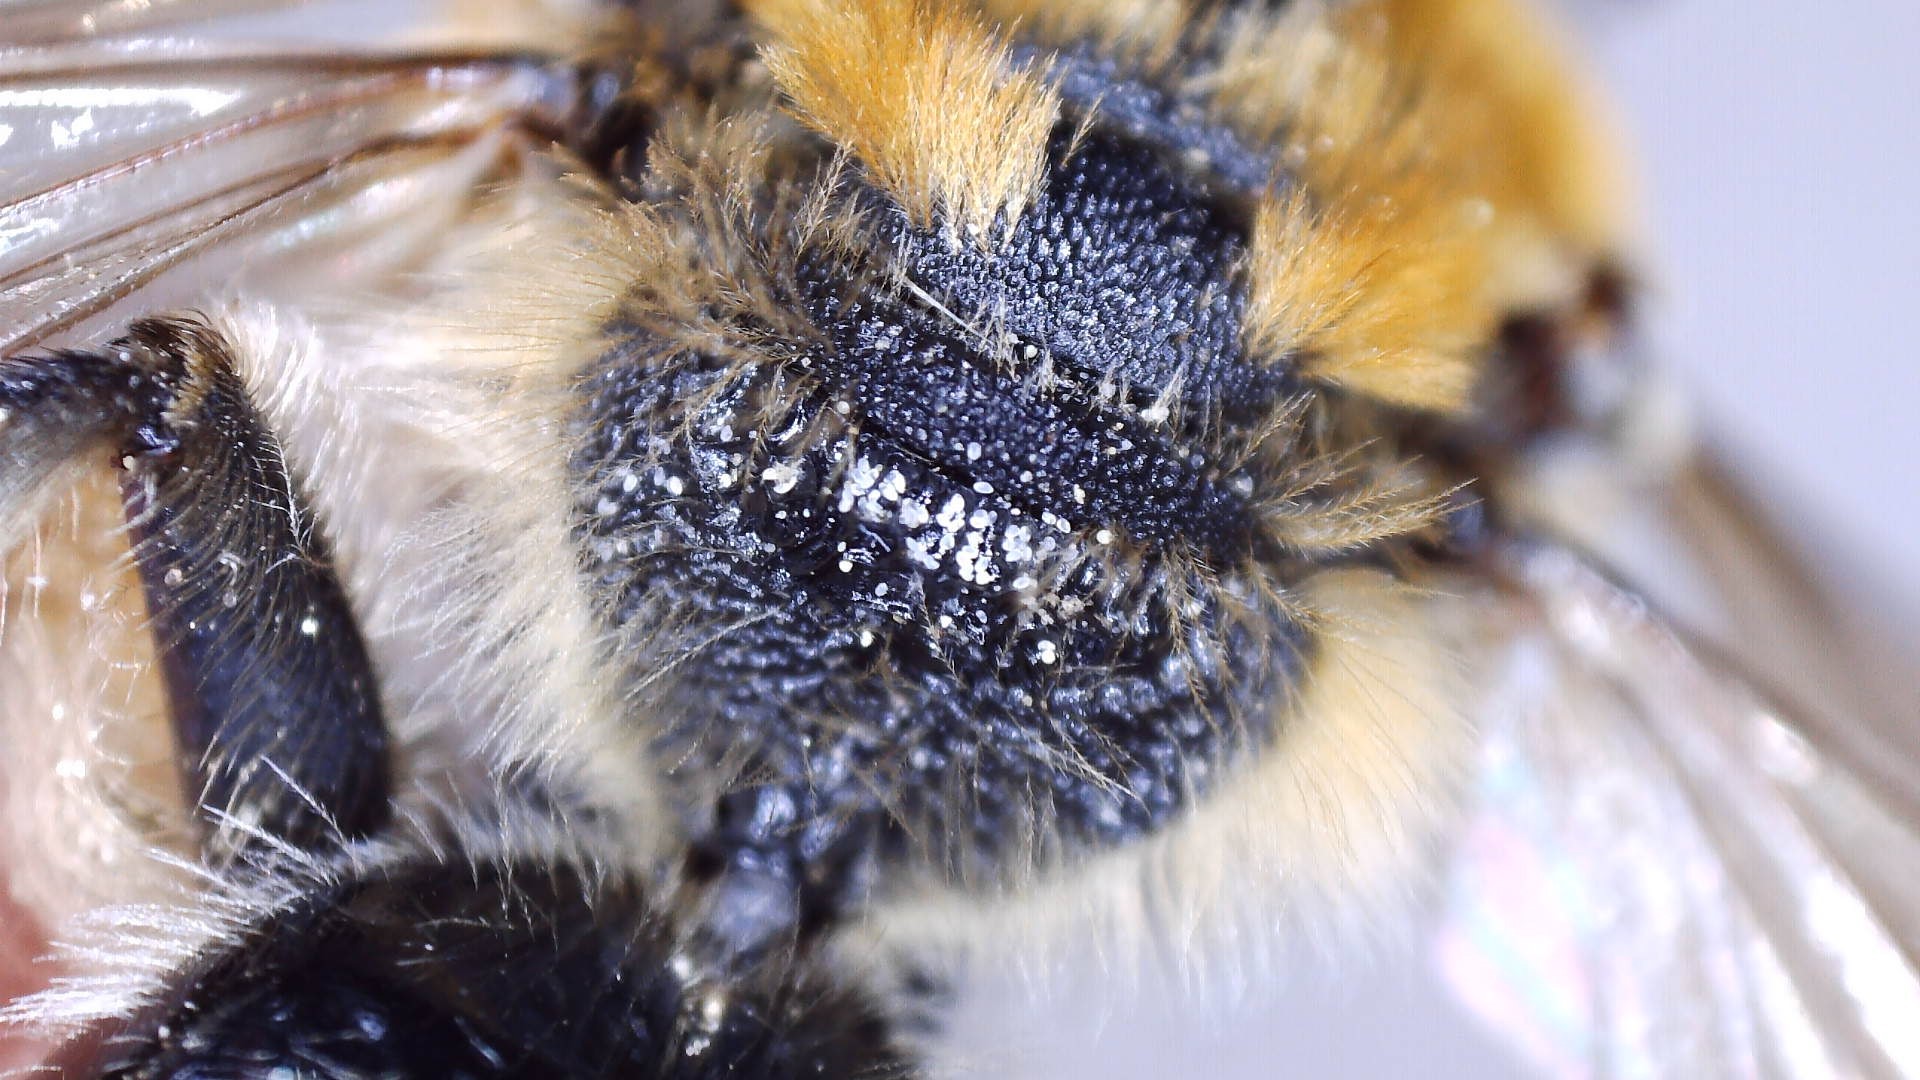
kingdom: Animalia
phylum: Arthropoda
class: Insecta
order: Hymenoptera
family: Colletidae
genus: Colletes
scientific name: Colletes thoracicus
